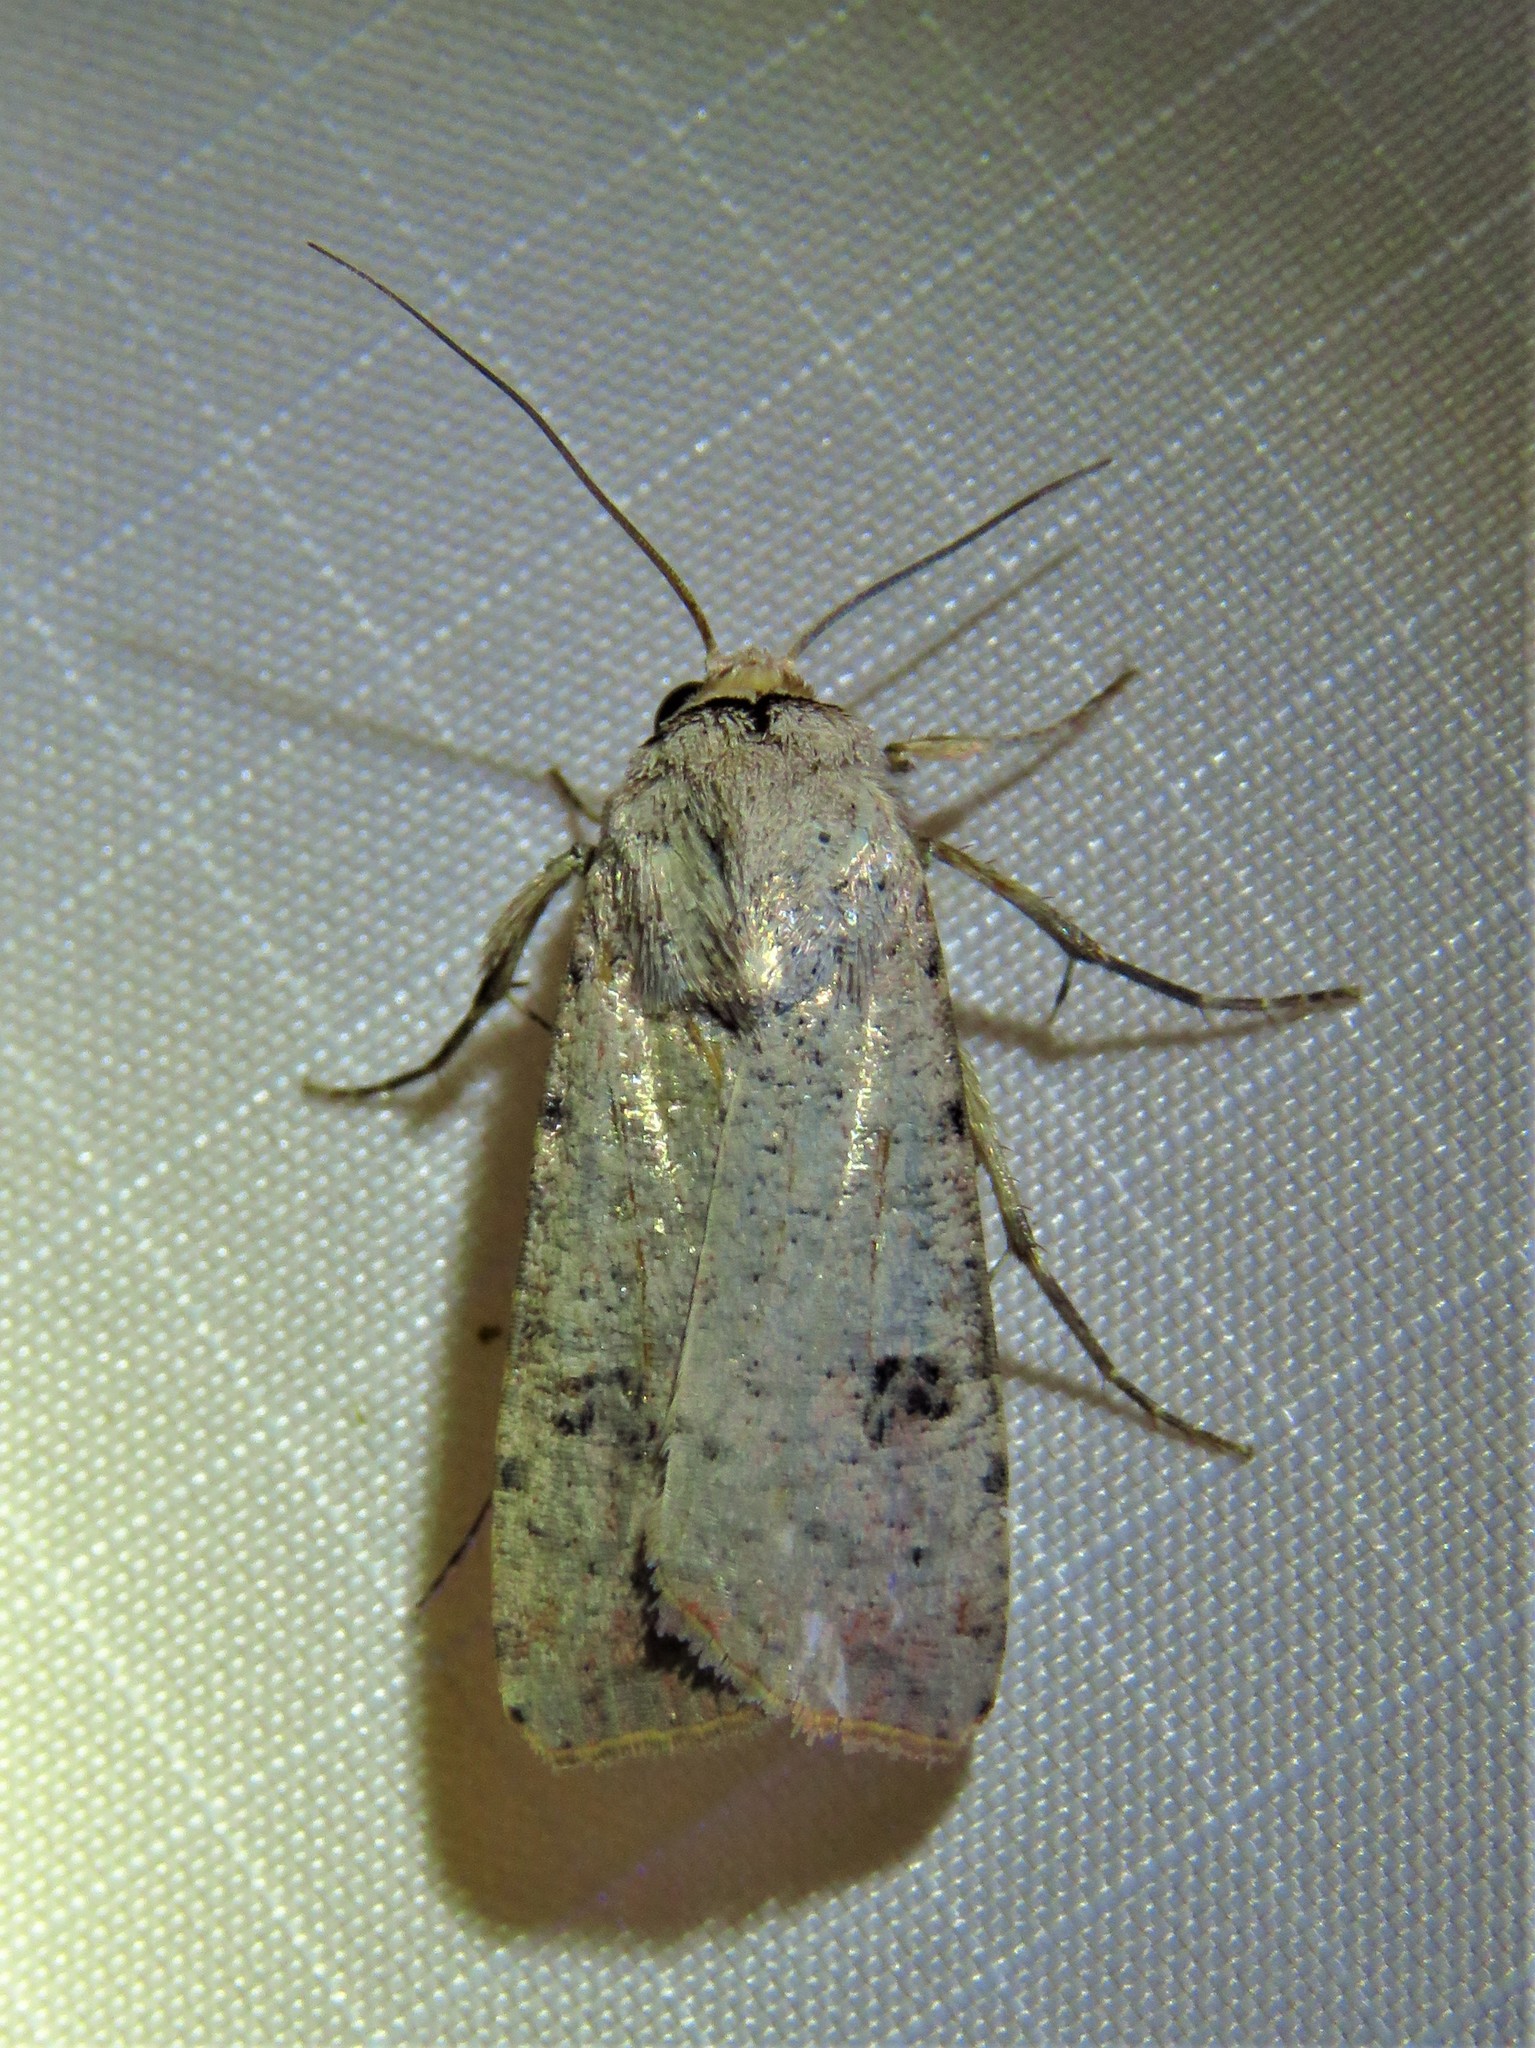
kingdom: Animalia
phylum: Arthropoda
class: Insecta
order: Lepidoptera
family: Noctuidae
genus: Anicla
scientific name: Anicla infecta
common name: Green cutworm
